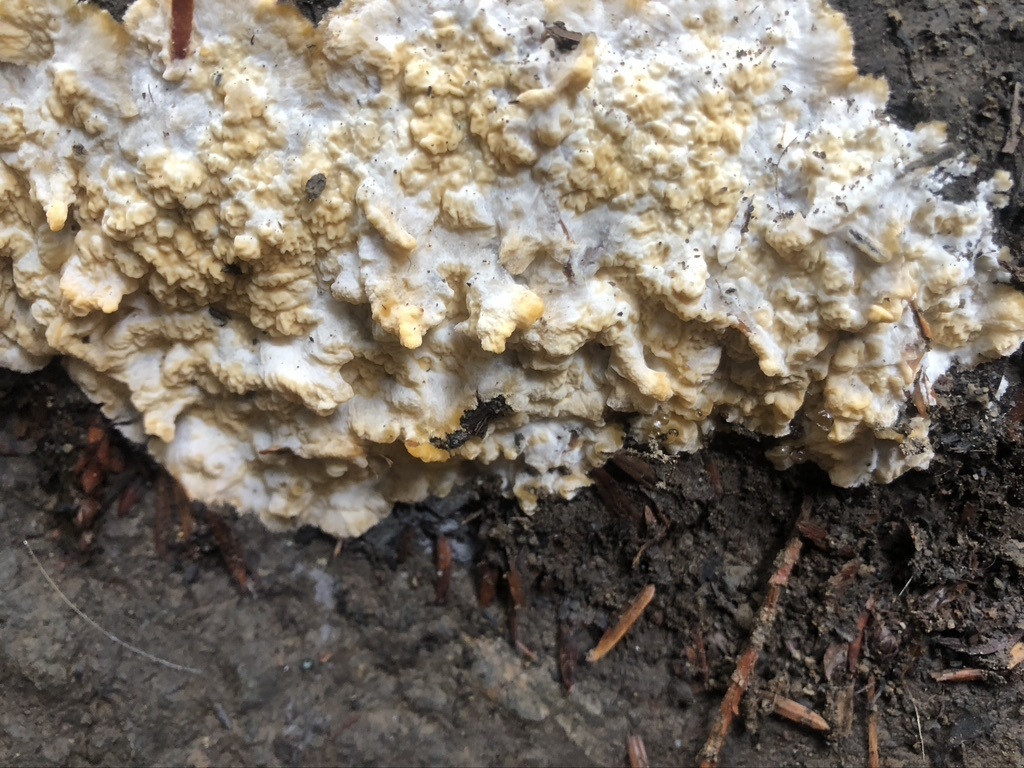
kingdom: Fungi
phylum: Basidiomycota
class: Agaricomycetes
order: Polyporales
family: Meruliaceae
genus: Phlebia
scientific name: Phlebia radiata
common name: Wrinkled crust
